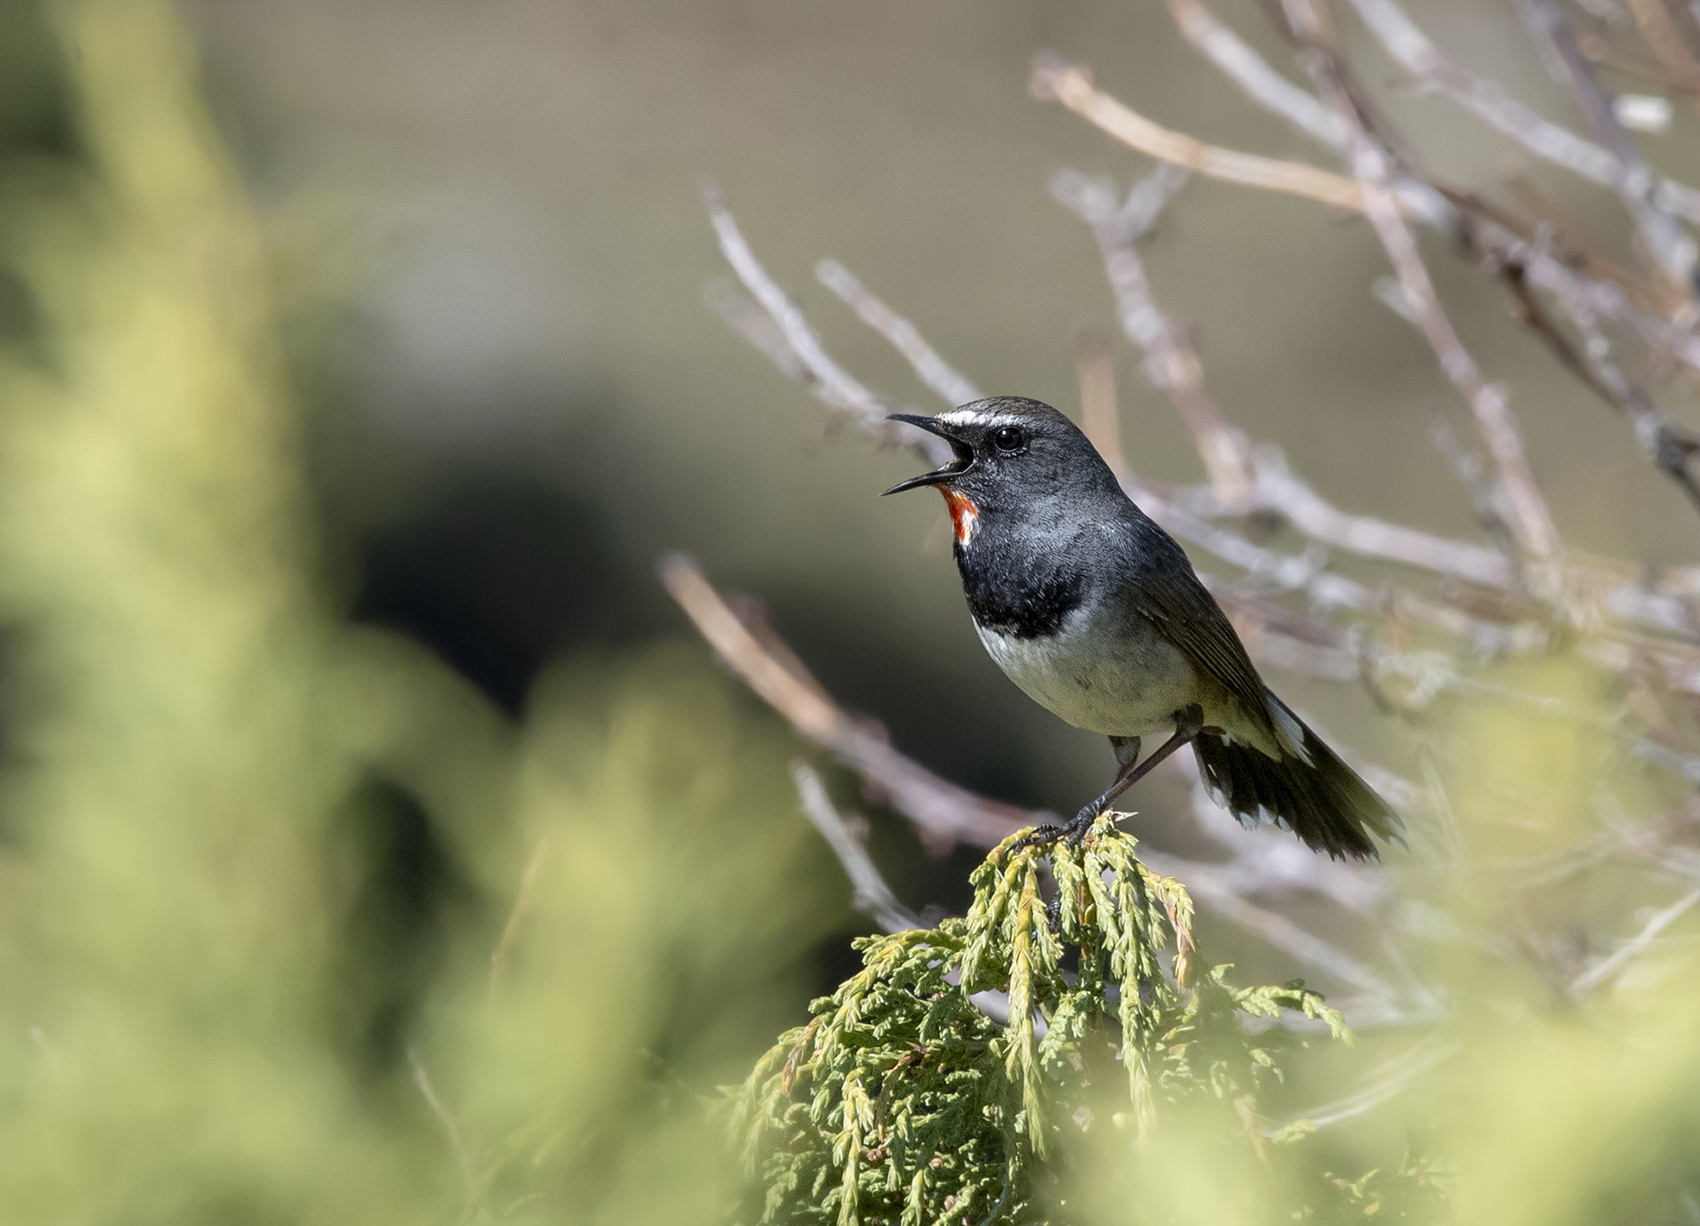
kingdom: Animalia
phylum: Chordata
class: Aves
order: Passeriformes
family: Muscicapidae
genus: Luscinia
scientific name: Luscinia pectoralis
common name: White-tailed rubythroat
